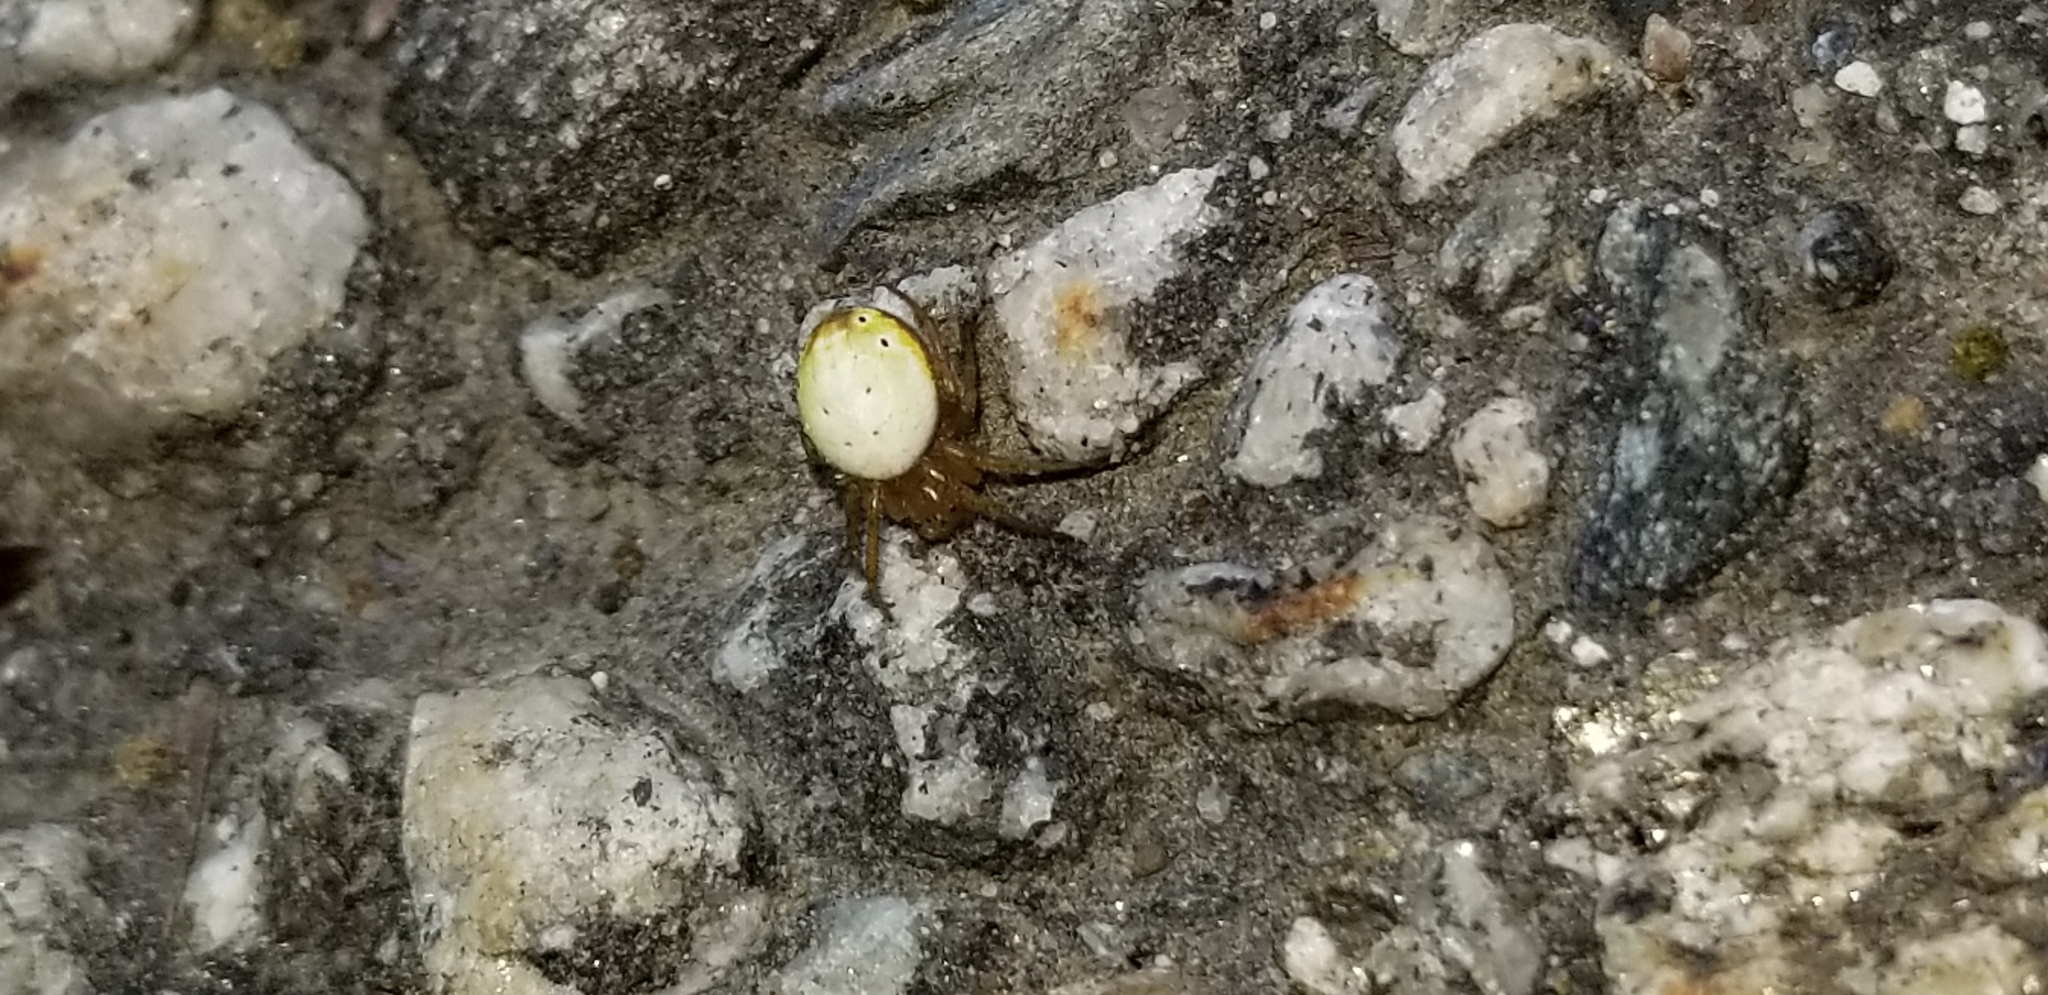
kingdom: Animalia
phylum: Arthropoda
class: Arachnida
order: Araneae
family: Araneidae
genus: Araniella
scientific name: Araniella displicata
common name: Sixspotted orb weaver
